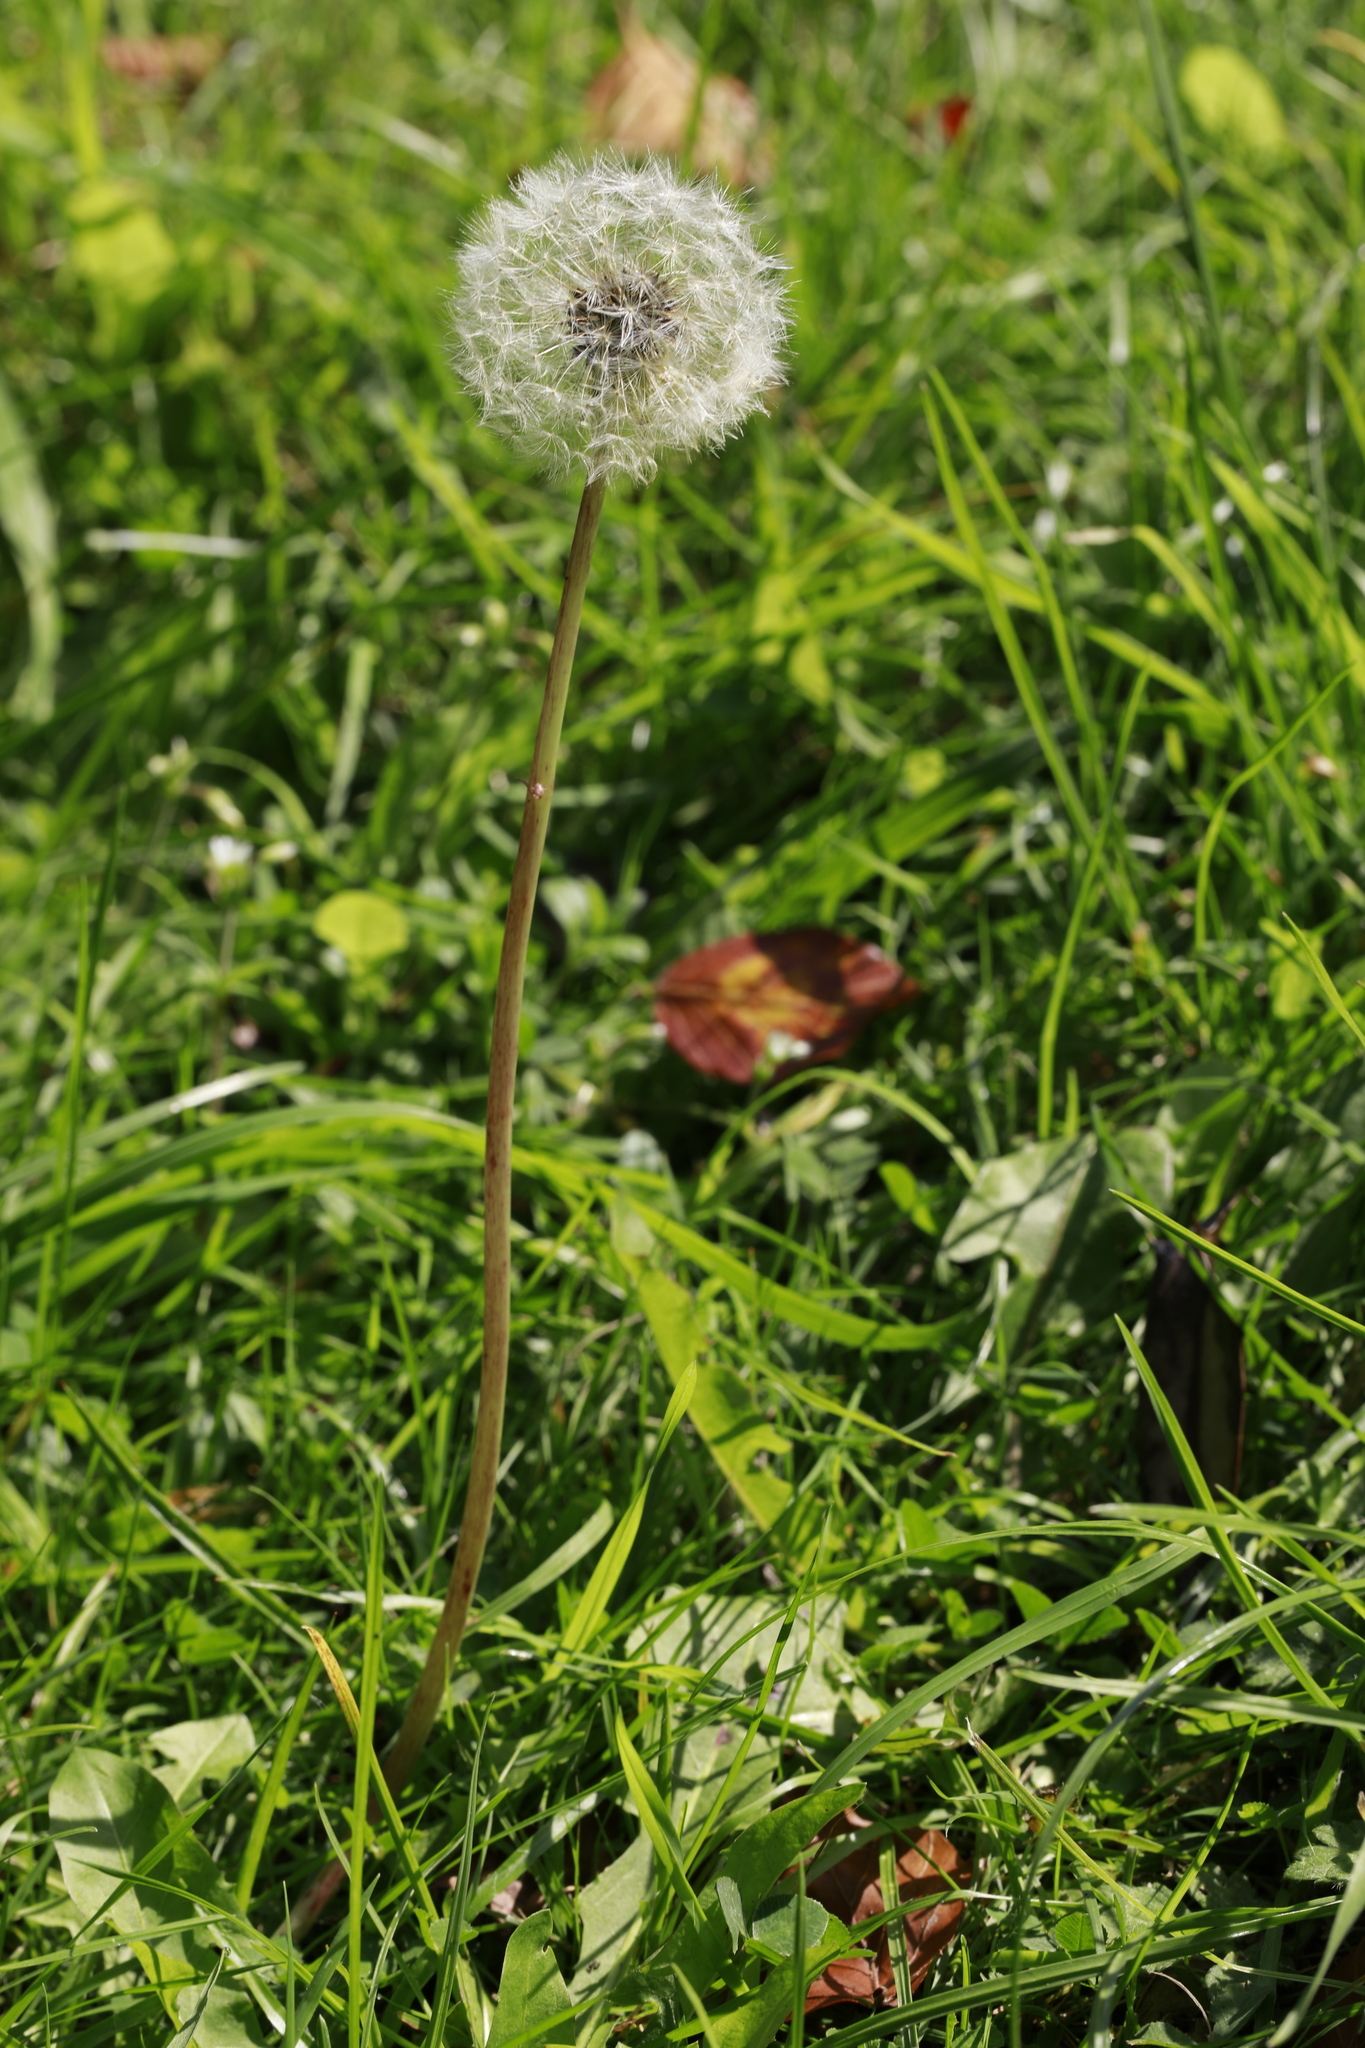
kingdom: Plantae
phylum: Tracheophyta
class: Magnoliopsida
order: Asterales
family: Asteraceae
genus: Taraxacum
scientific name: Taraxacum officinale
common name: Common dandelion
